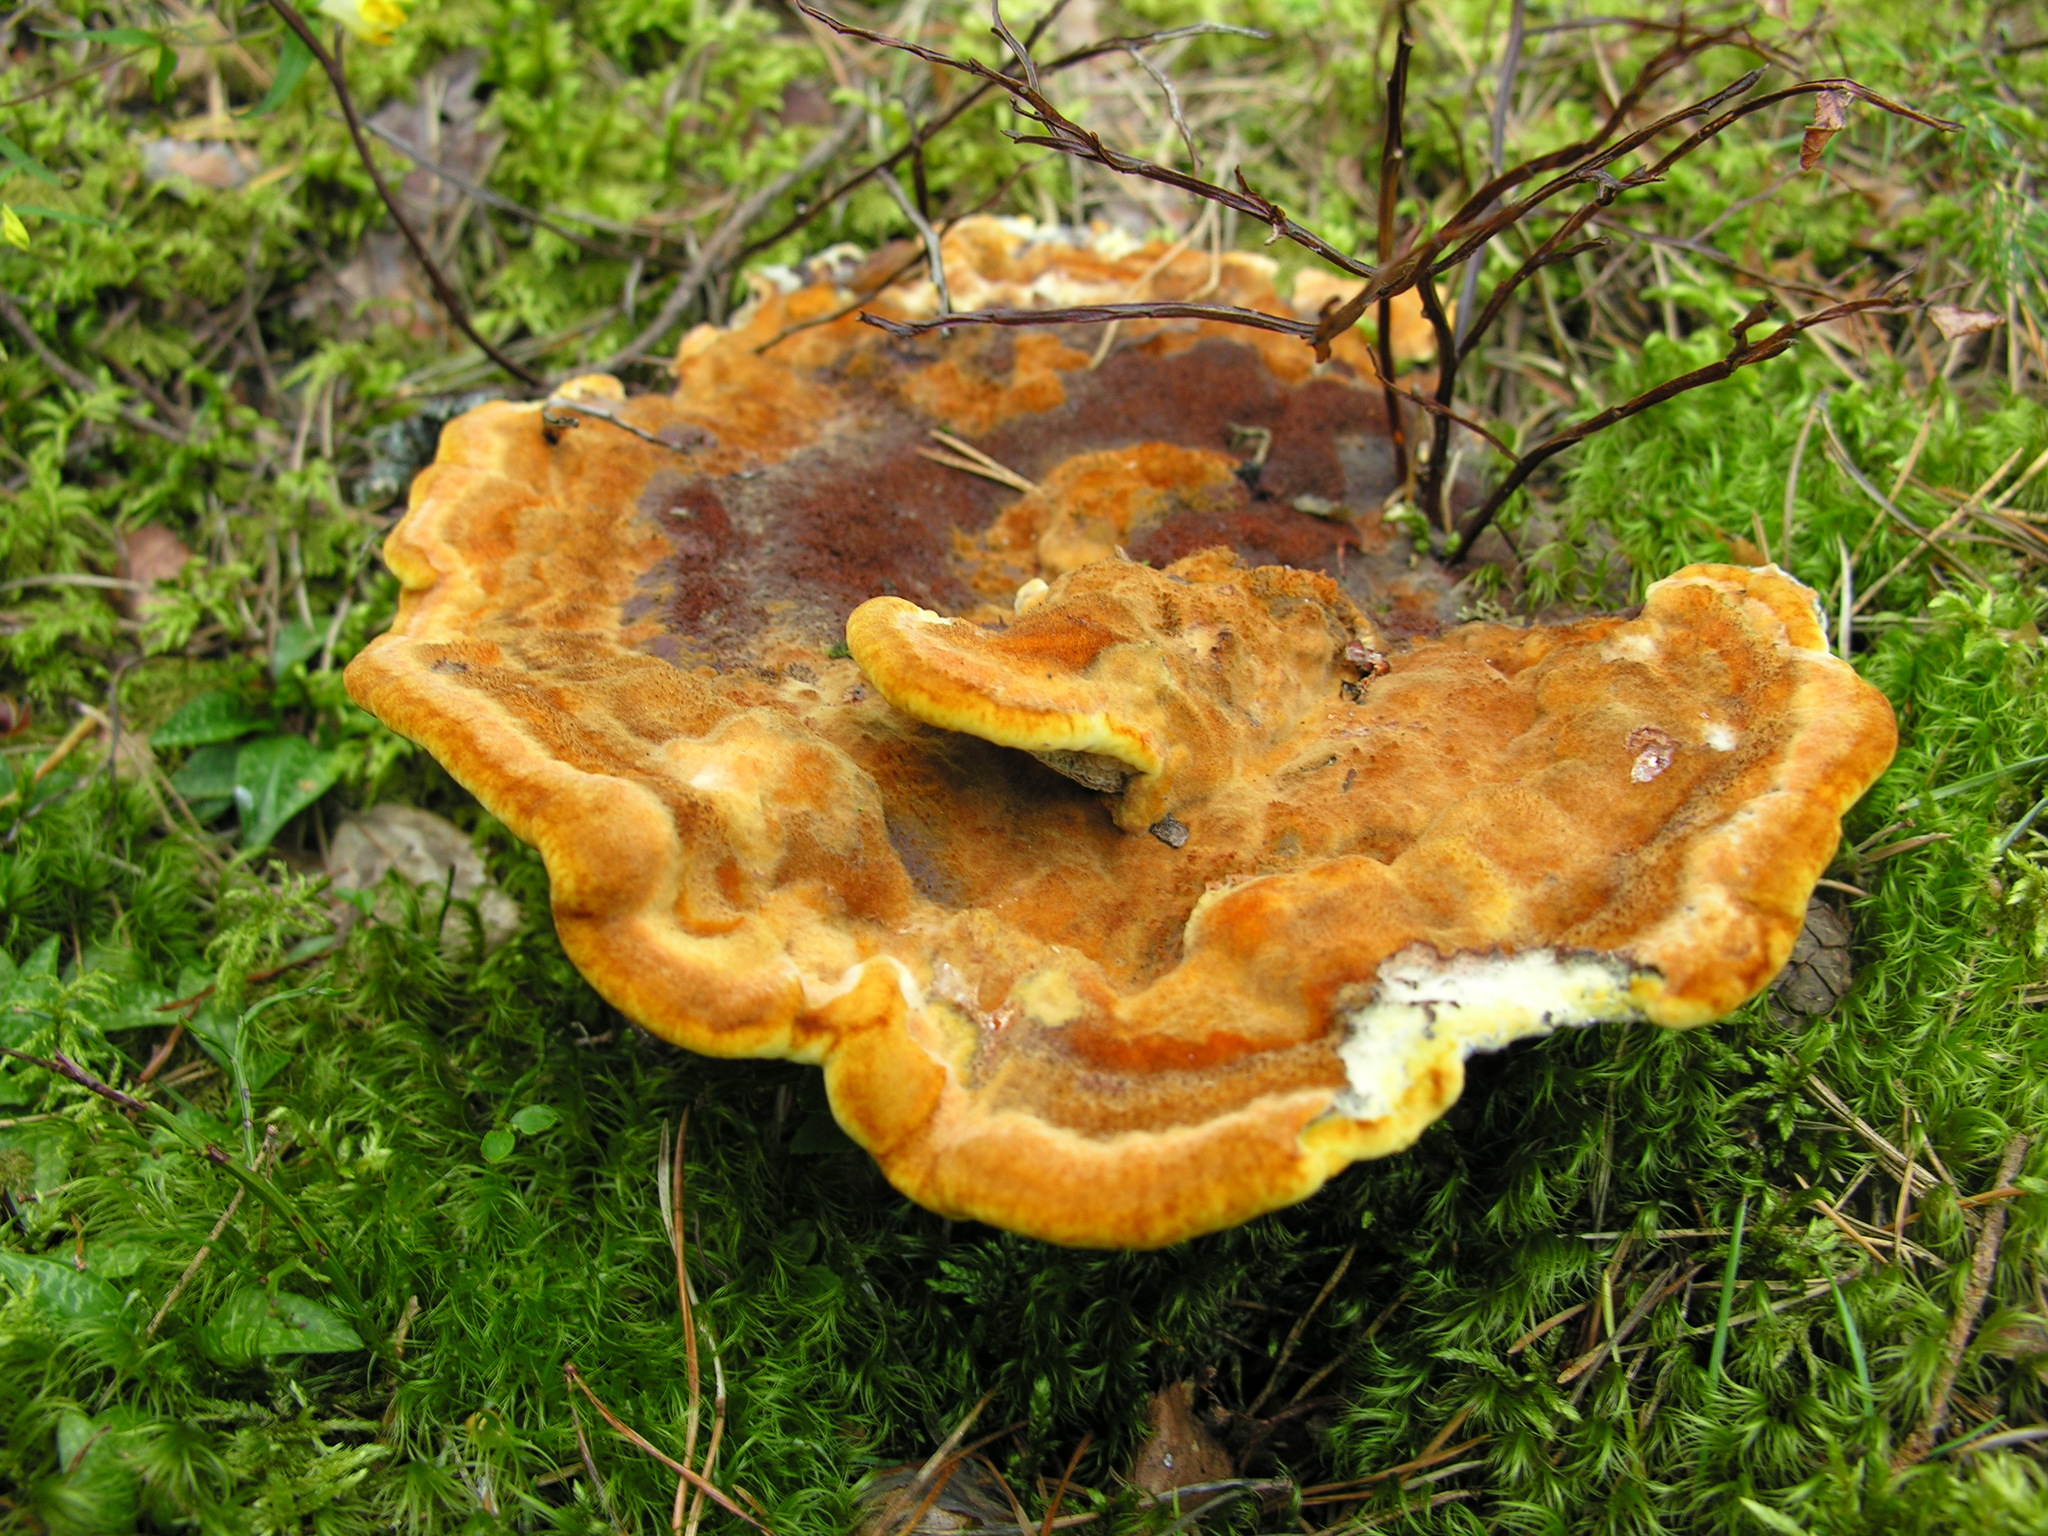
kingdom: Fungi
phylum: Basidiomycota
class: Agaricomycetes
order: Polyporales
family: Laetiporaceae
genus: Phaeolus
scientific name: Phaeolus schweinitzii
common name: Dyer's mazegill
